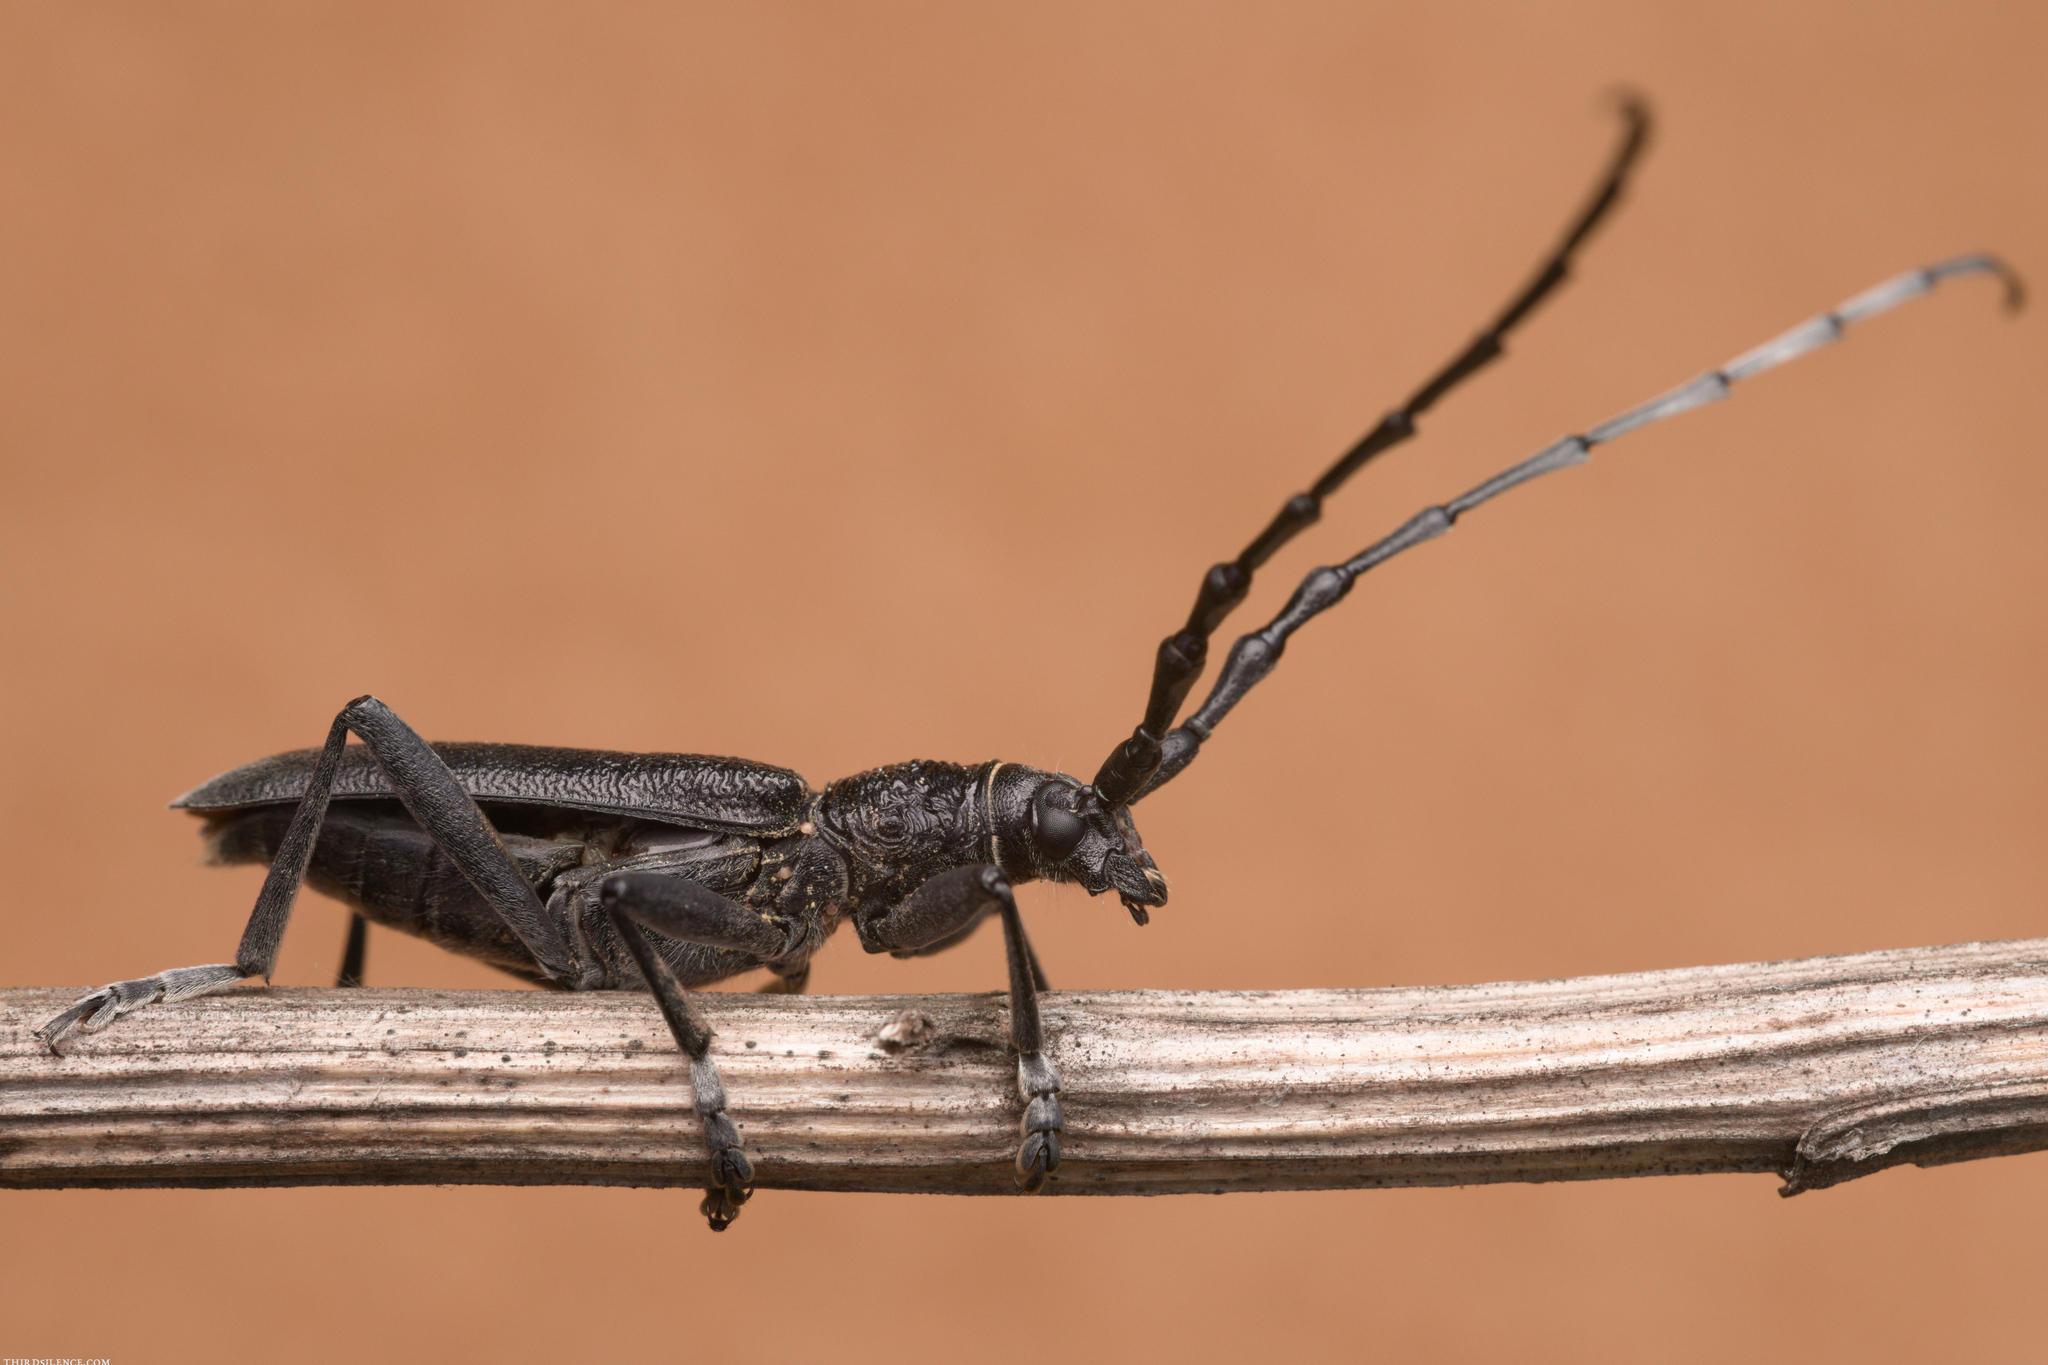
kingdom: Animalia
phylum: Arthropoda
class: Insecta
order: Coleoptera
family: Cerambycidae
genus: Cerambyx
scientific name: Cerambyx scopolii
